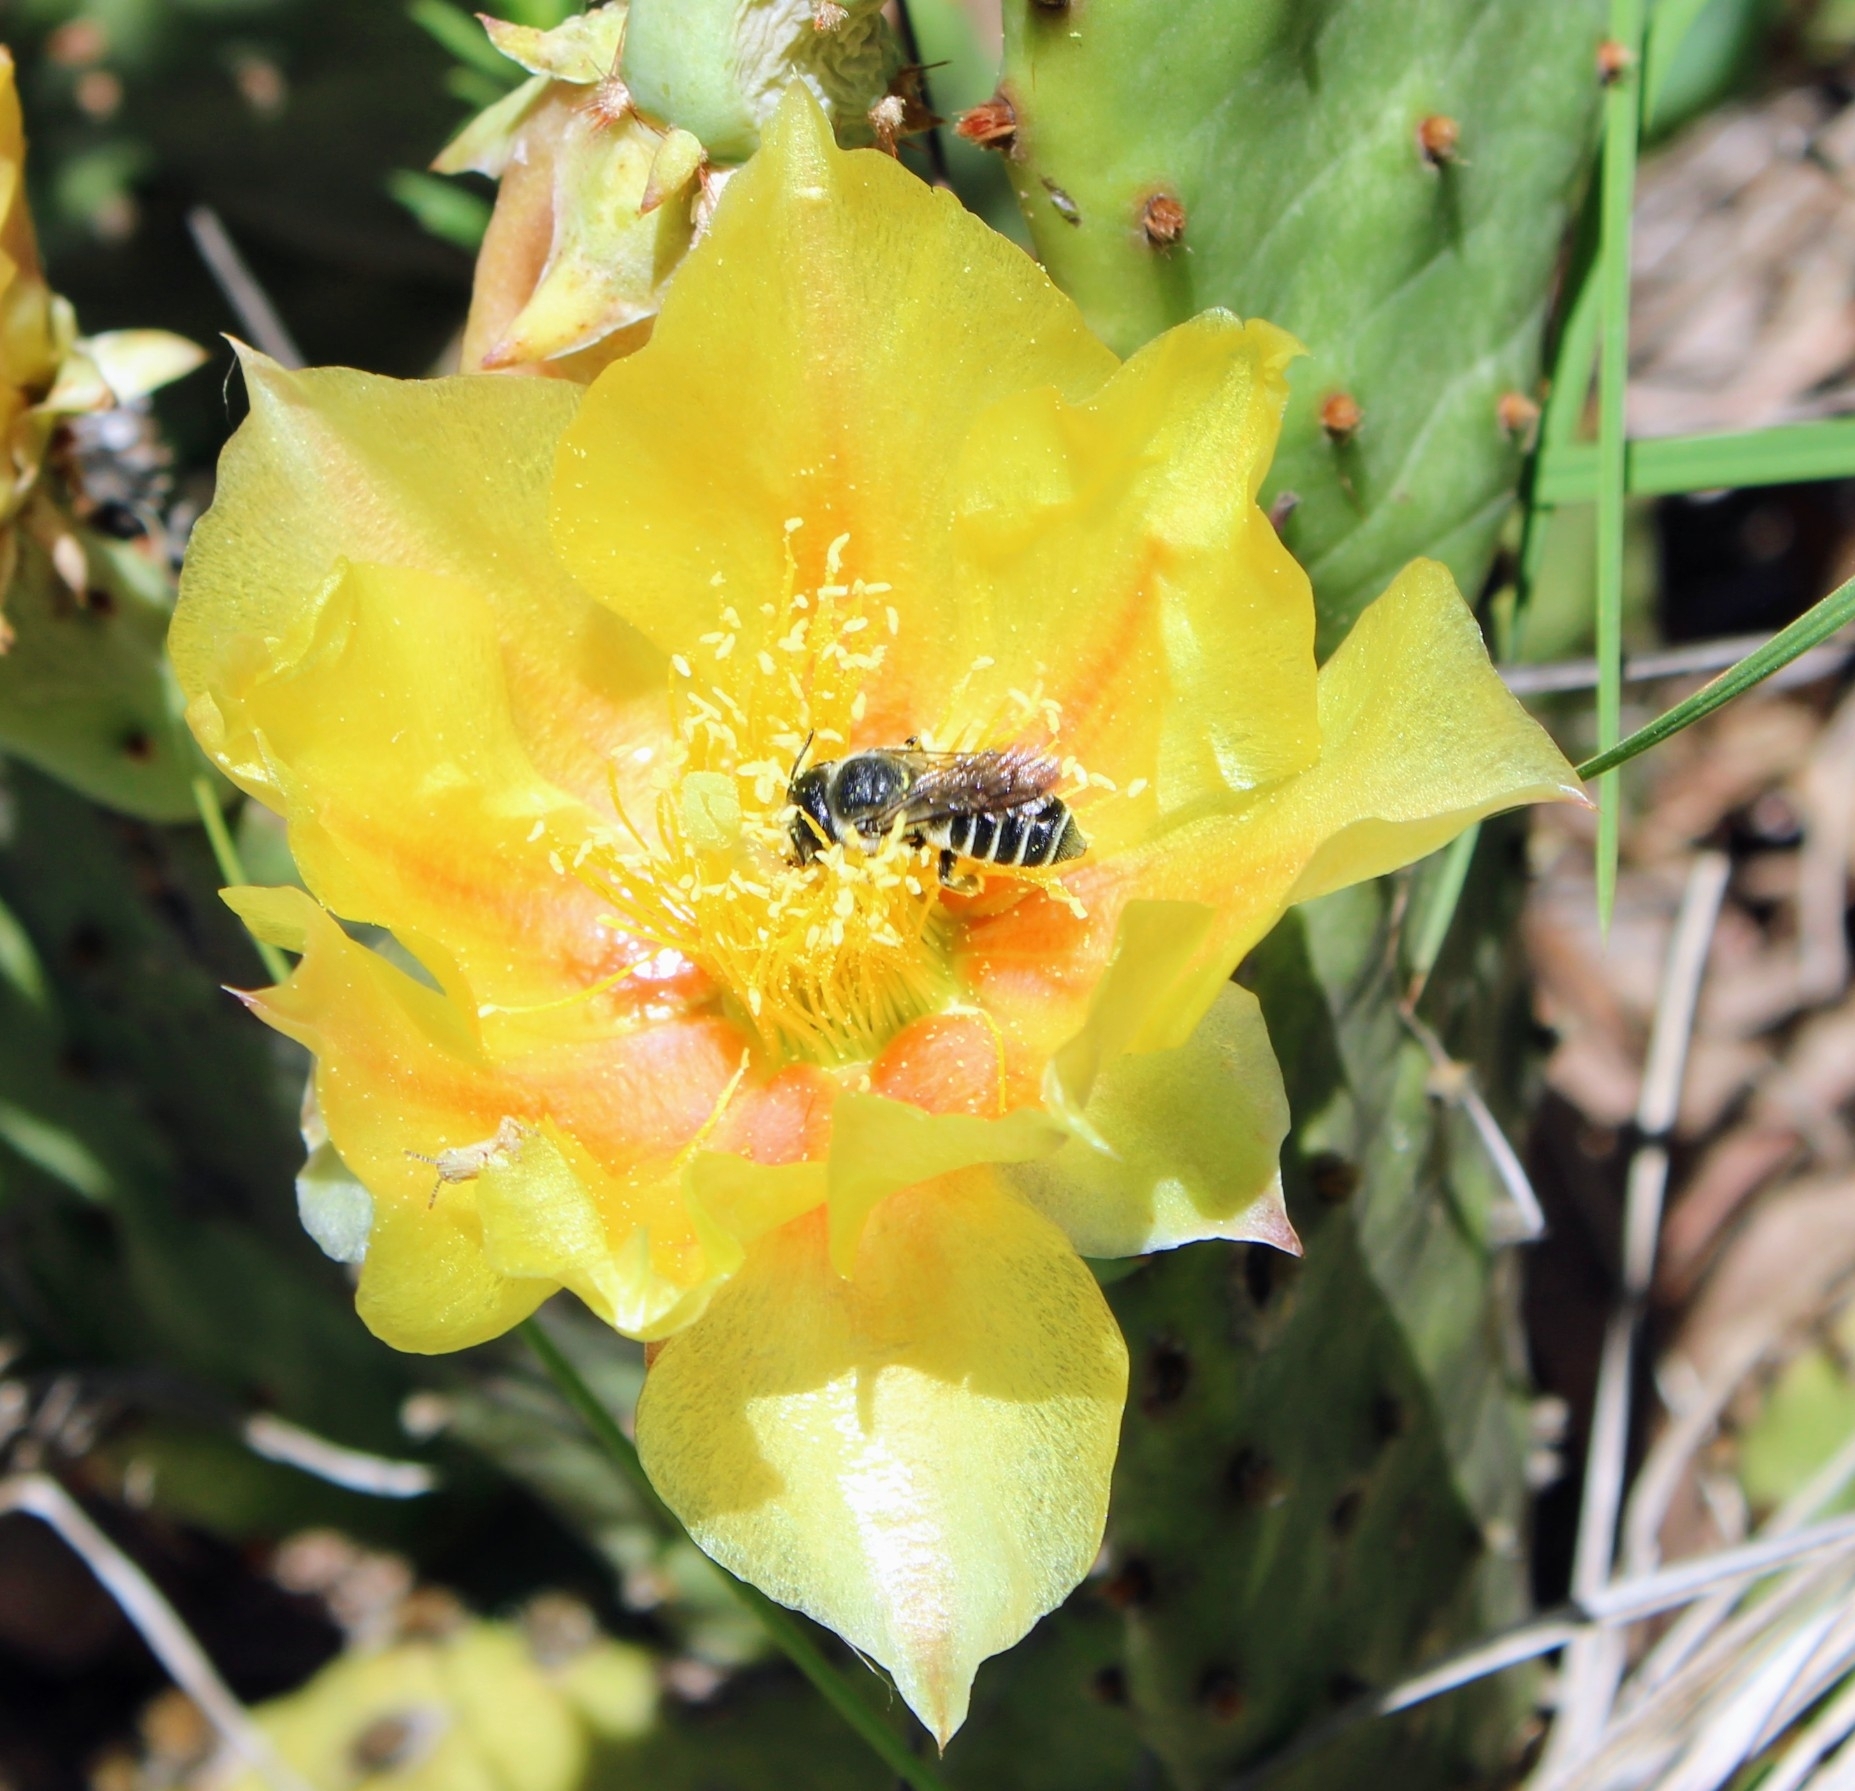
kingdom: Animalia
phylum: Arthropoda
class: Insecta
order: Hymenoptera
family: Megachilidae
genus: Megachile
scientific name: Megachile montivaga
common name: Silver-tailed petalcutter bee
